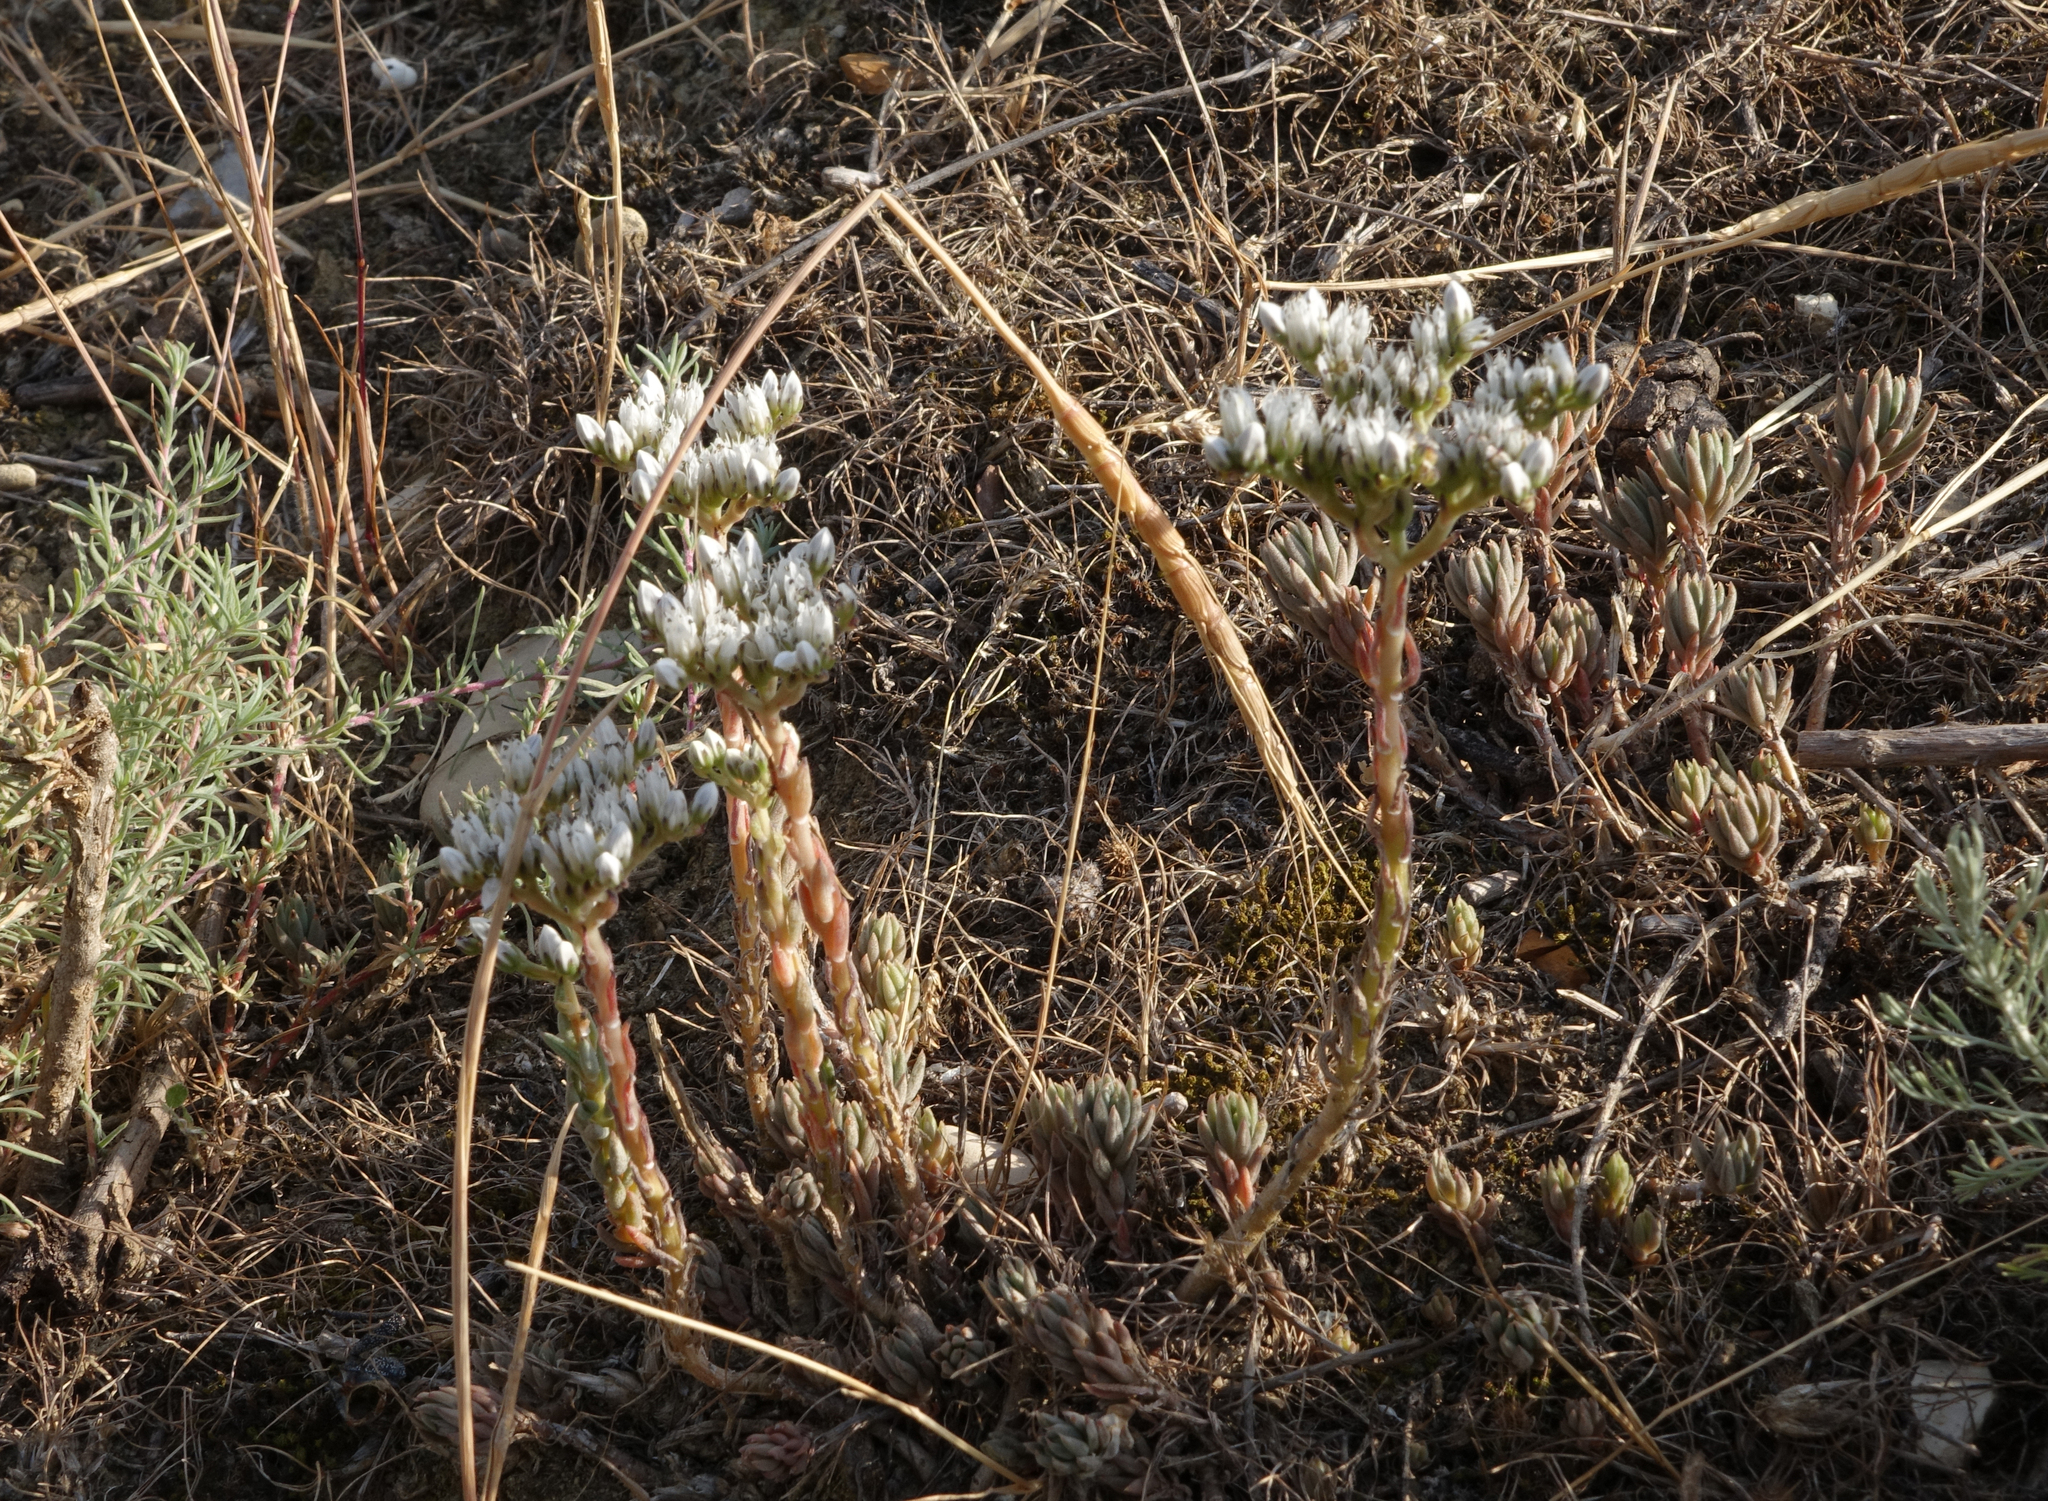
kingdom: Plantae
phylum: Tracheophyta
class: Magnoliopsida
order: Saxifragales
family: Crassulaceae
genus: Petrosedum
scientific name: Petrosedum subulatum
